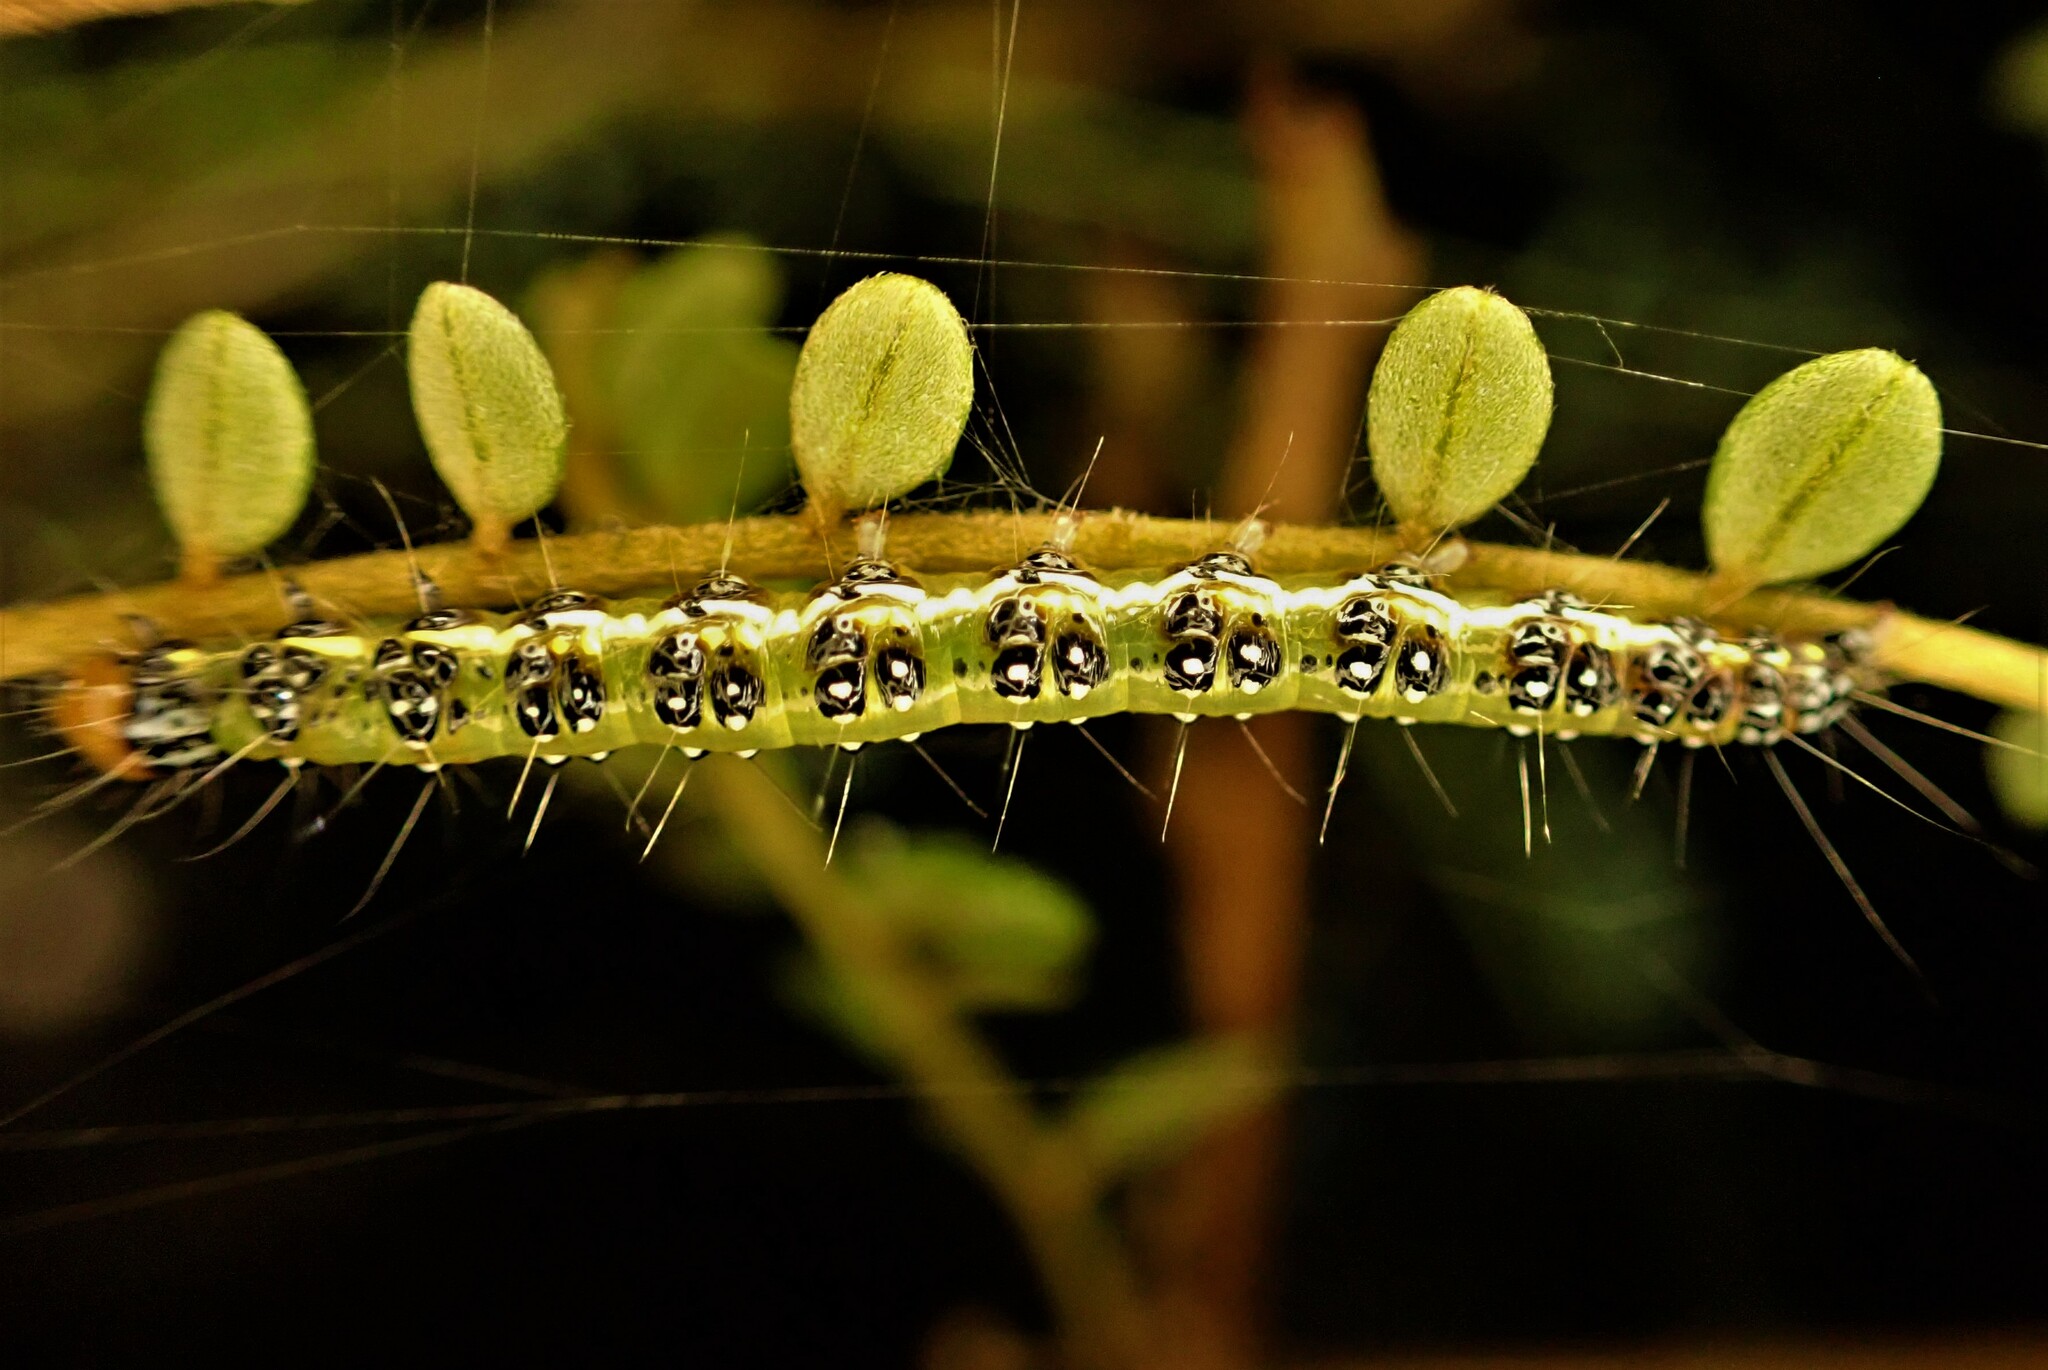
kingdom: Animalia
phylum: Arthropoda
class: Insecta
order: Lepidoptera
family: Crambidae
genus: Uresiphita
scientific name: Uresiphita
